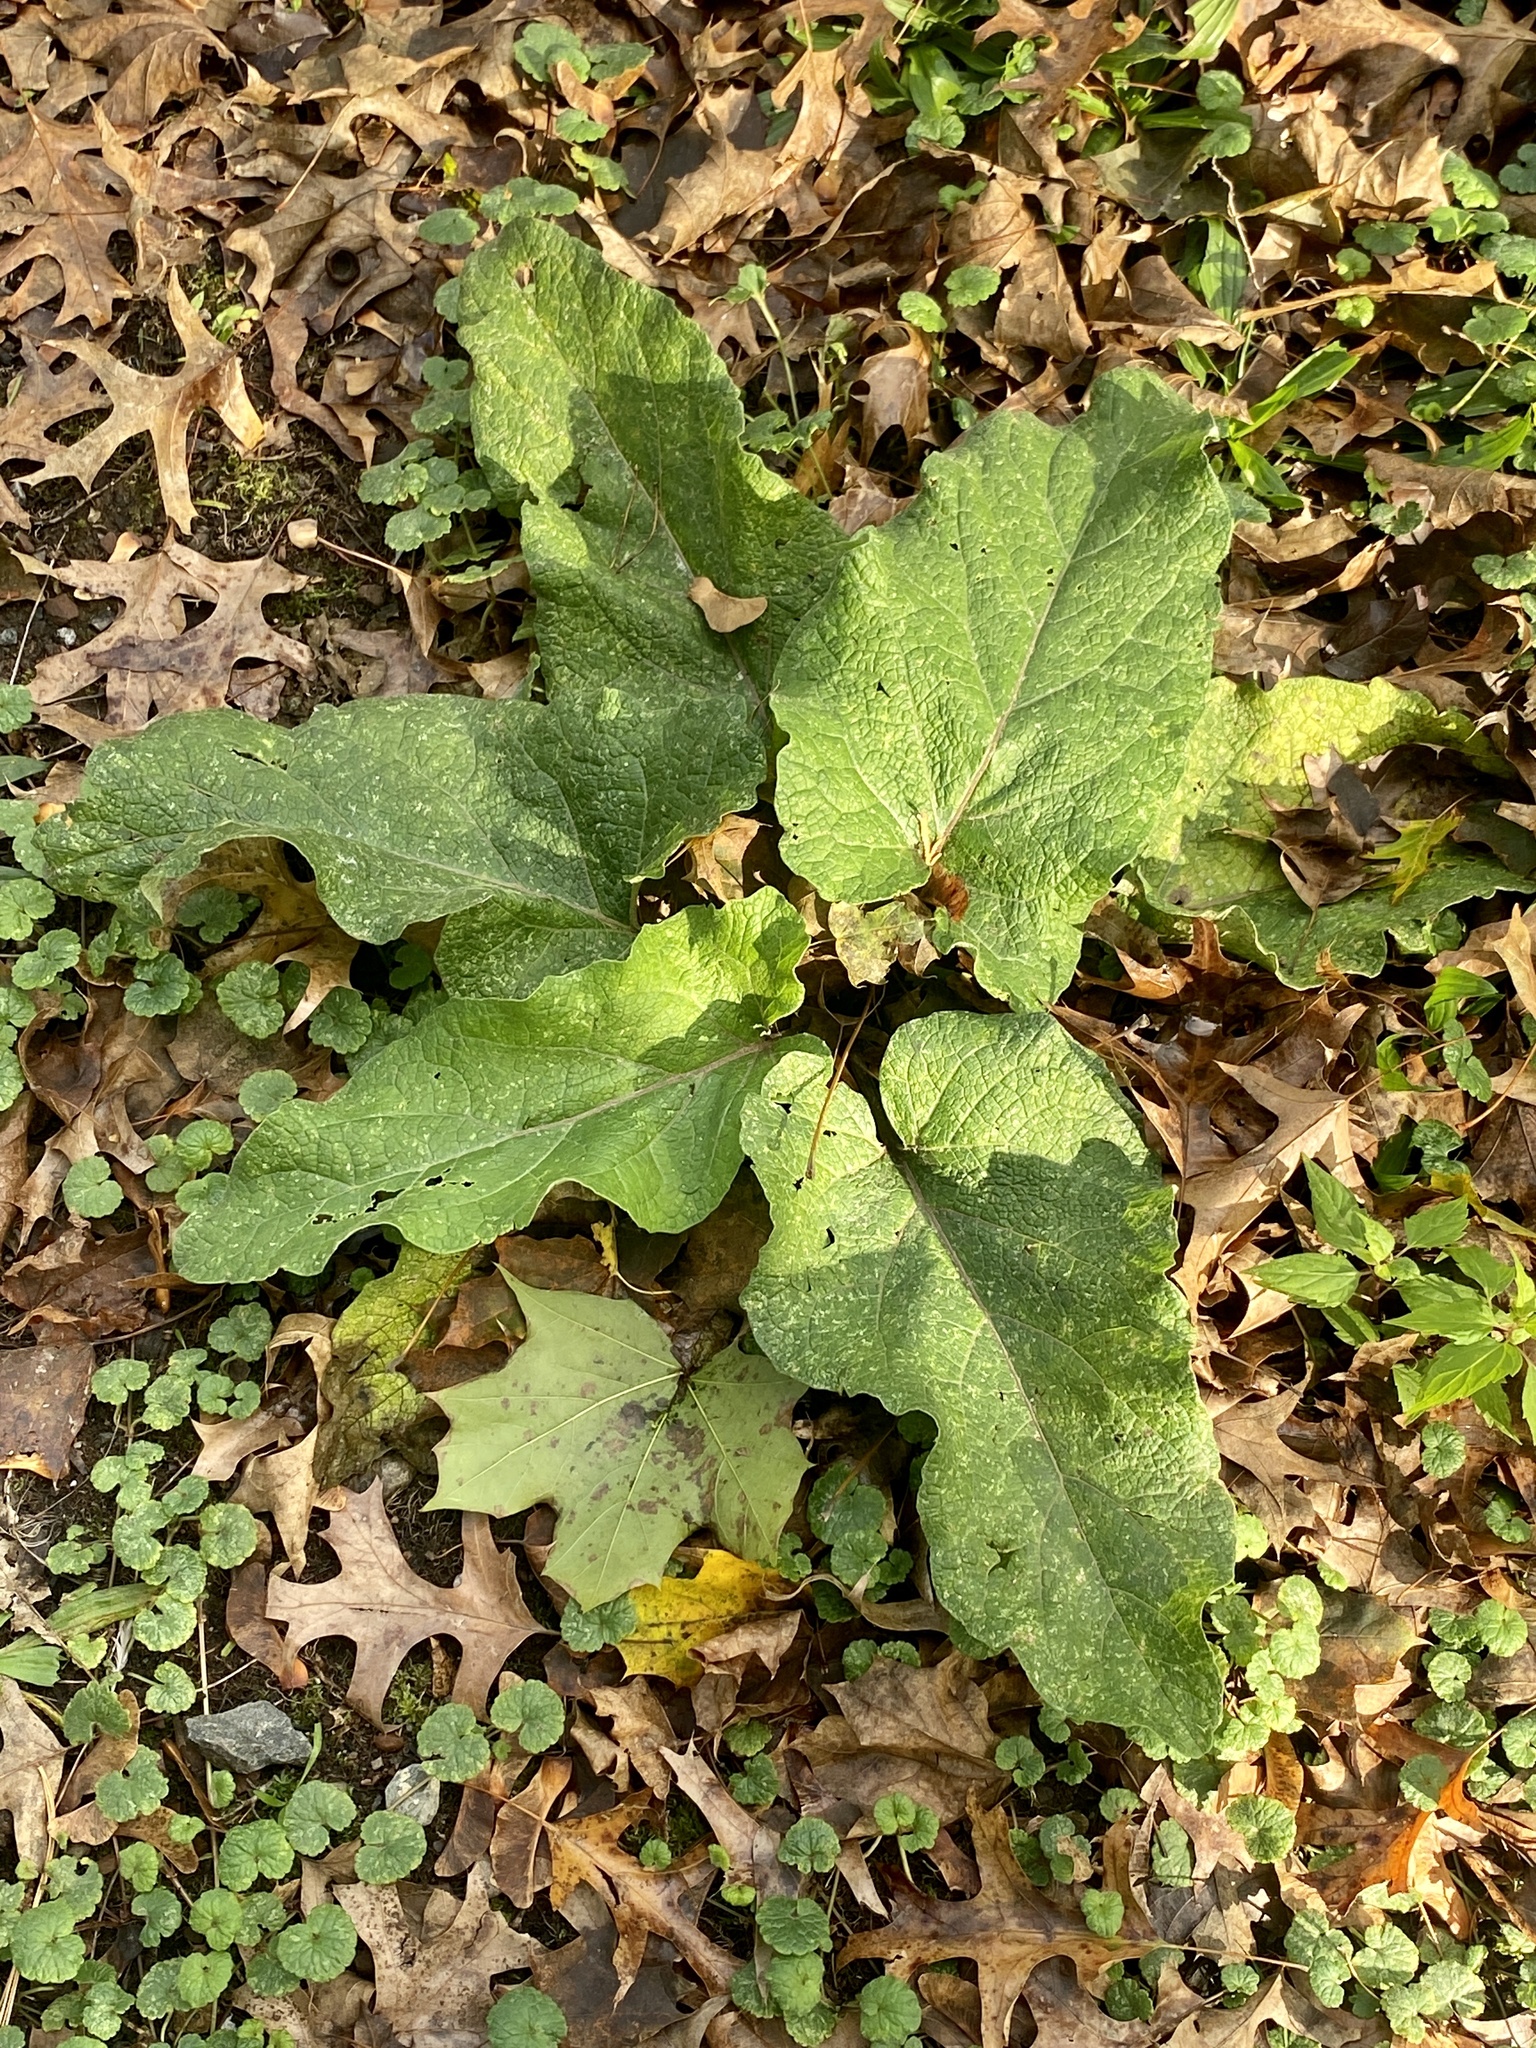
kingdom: Plantae
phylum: Tracheophyta
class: Magnoliopsida
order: Asterales
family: Asteraceae
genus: Arctium
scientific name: Arctium minus
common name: Lesser burdock
